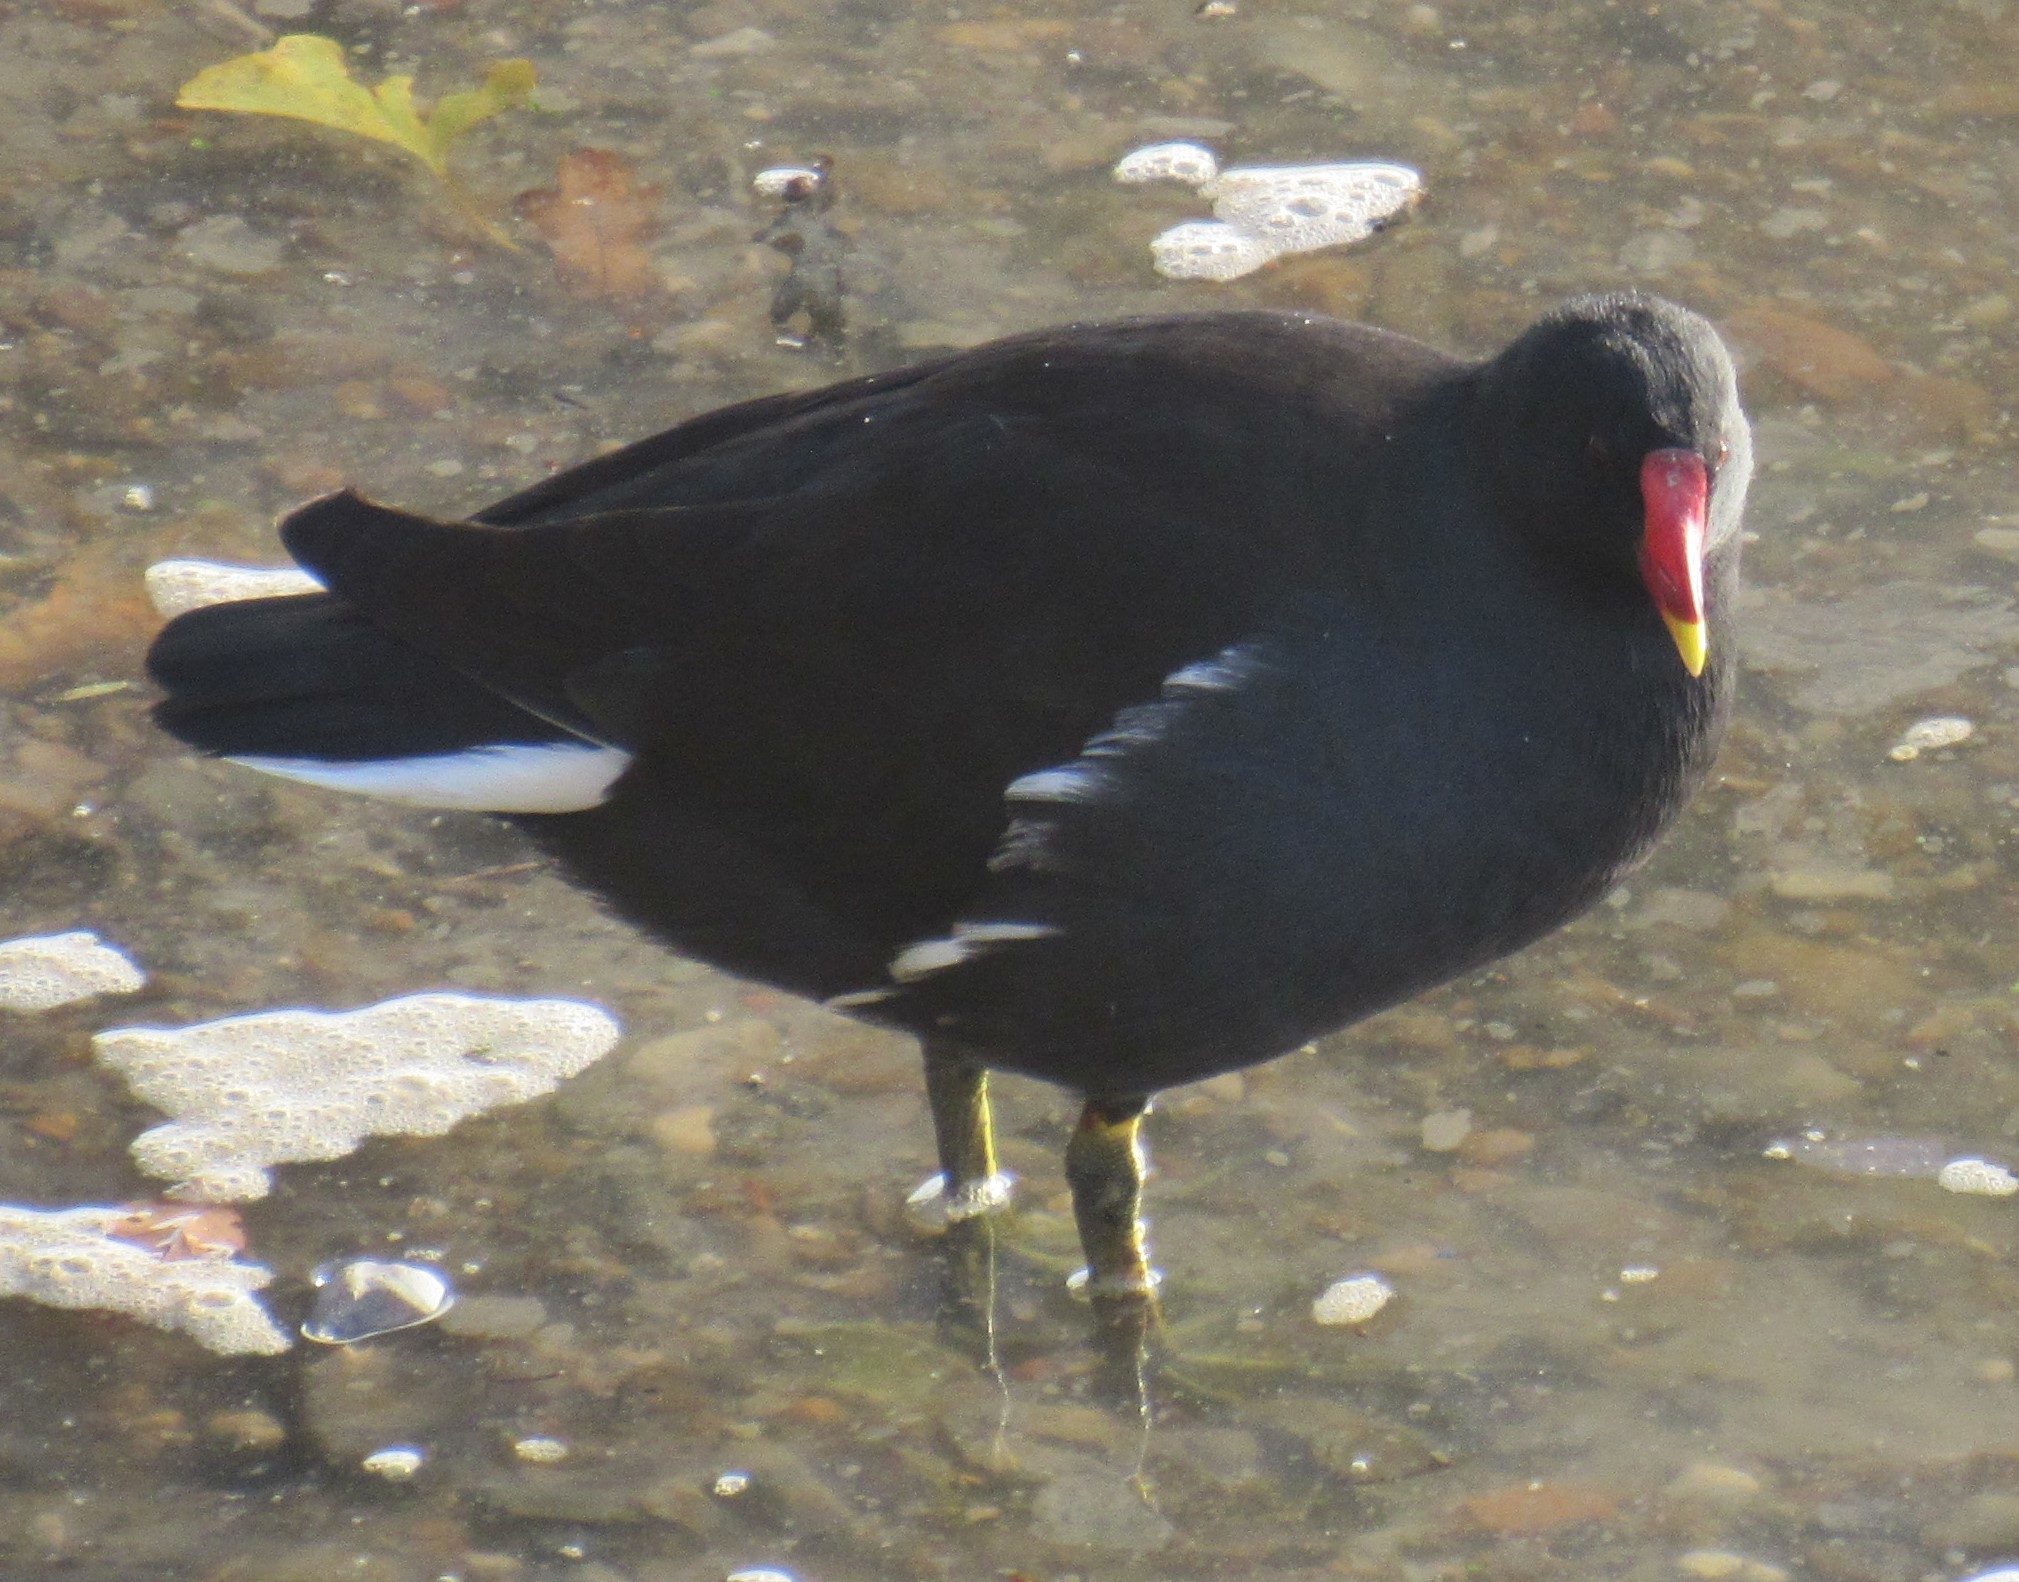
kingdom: Animalia
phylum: Chordata
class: Aves
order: Gruiformes
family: Rallidae
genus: Gallinula
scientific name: Gallinula chloropus
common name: Common moorhen
